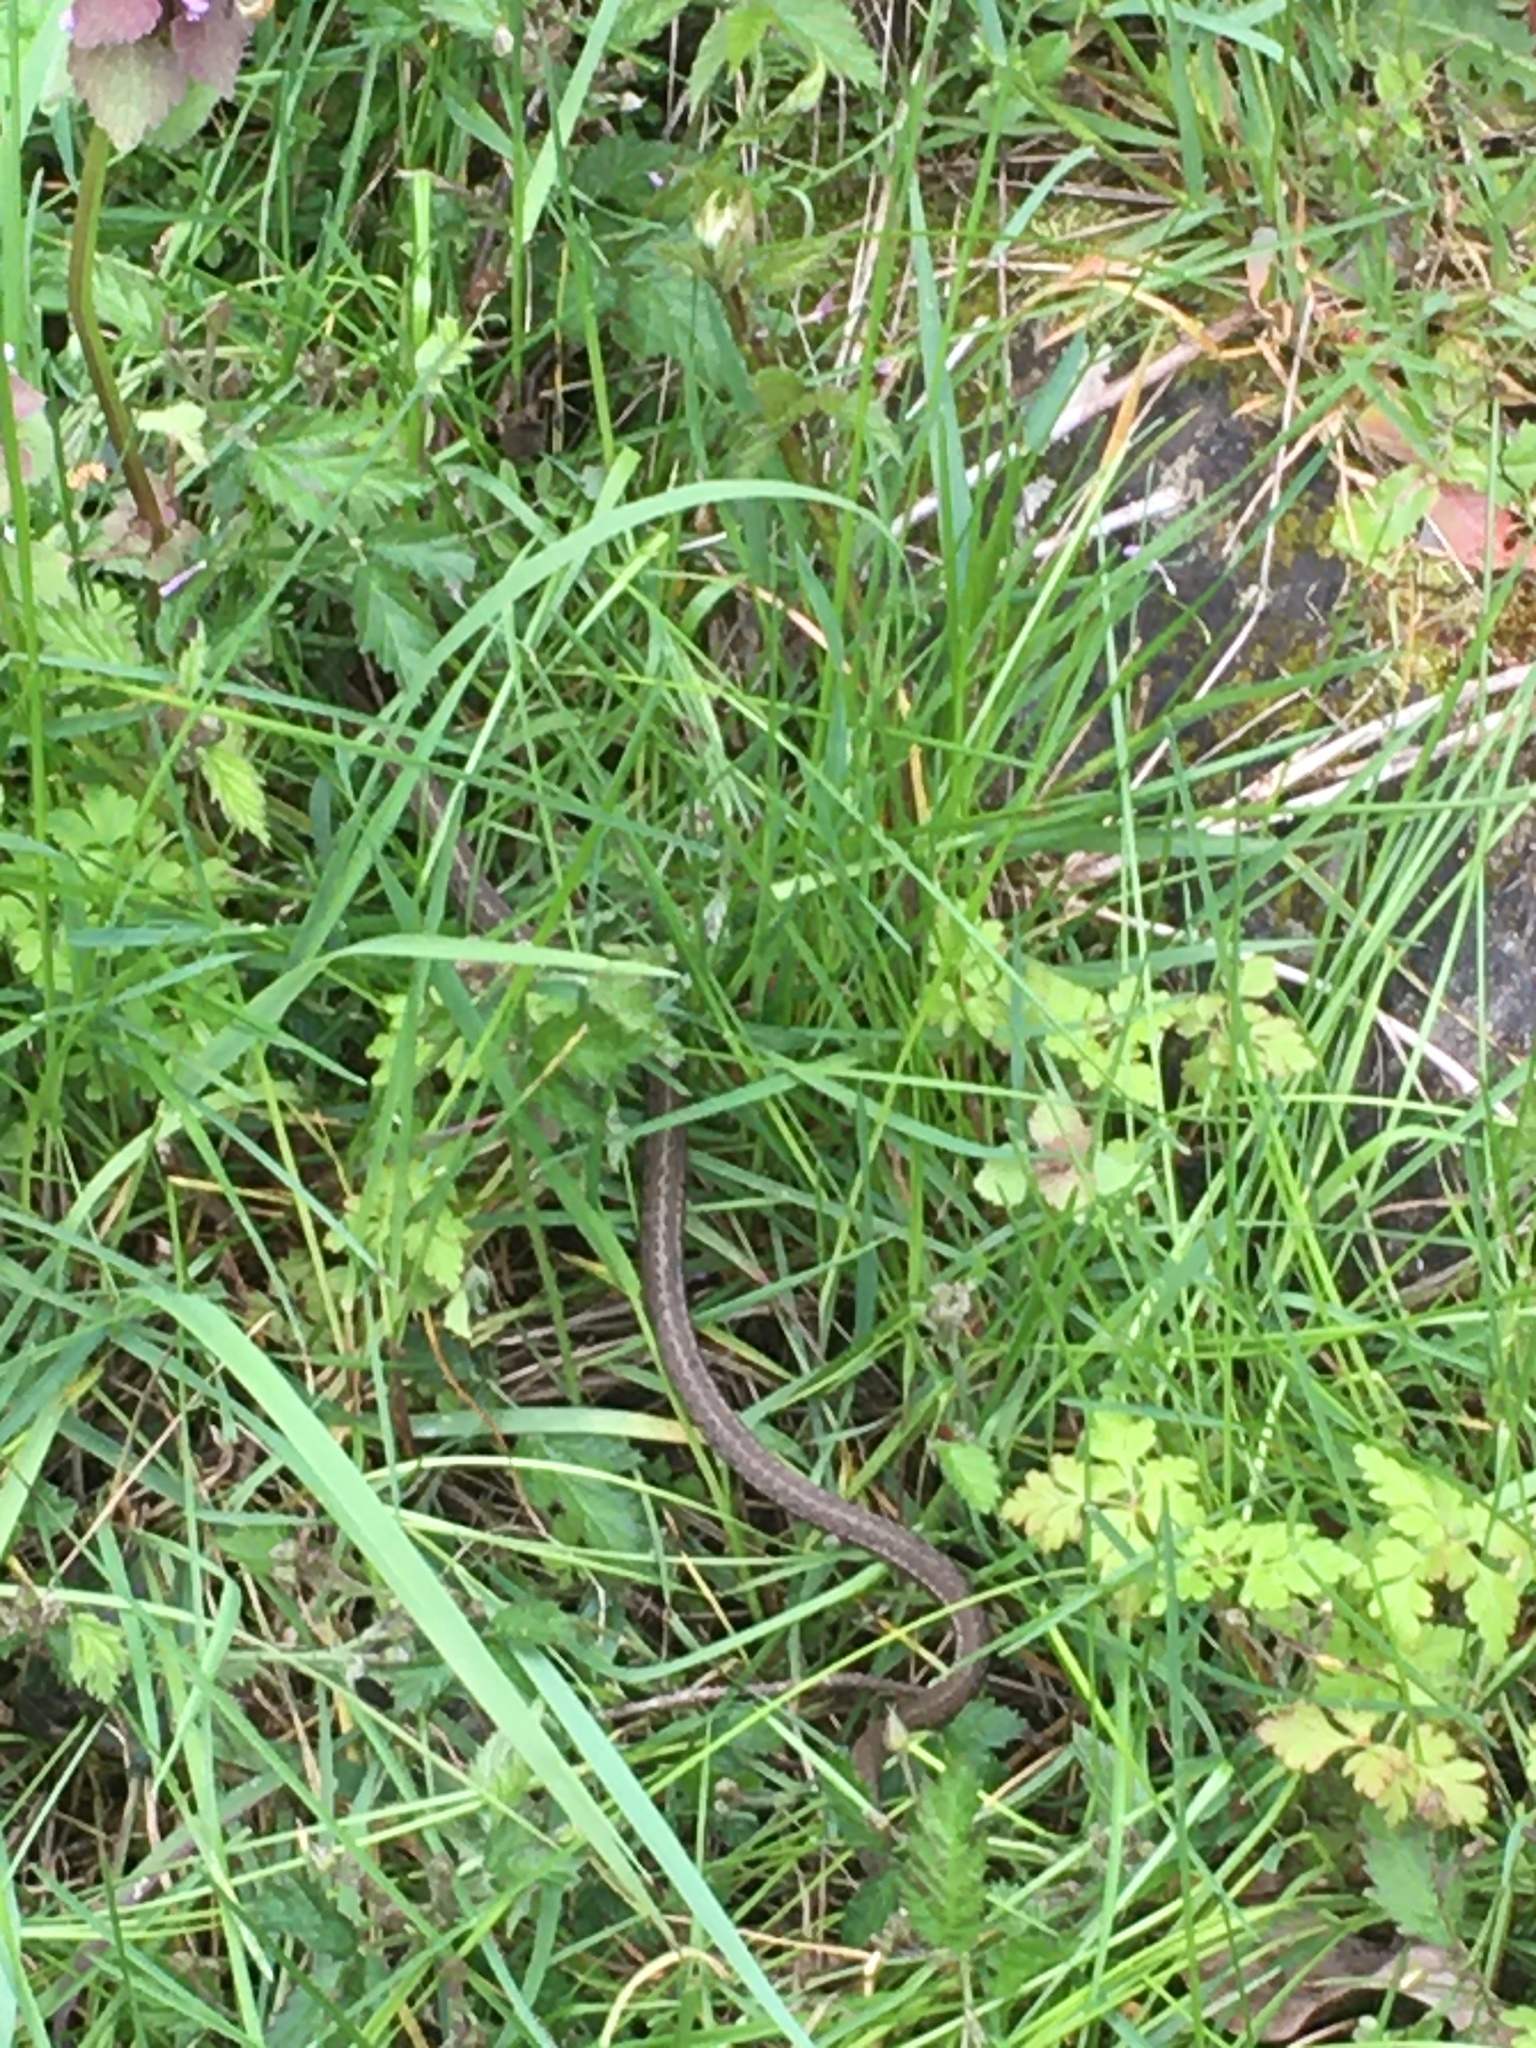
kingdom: Animalia
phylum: Chordata
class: Squamata
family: Colubridae
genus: Thamnophis
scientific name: Thamnophis elegans
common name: Western terrestrial garter snake
